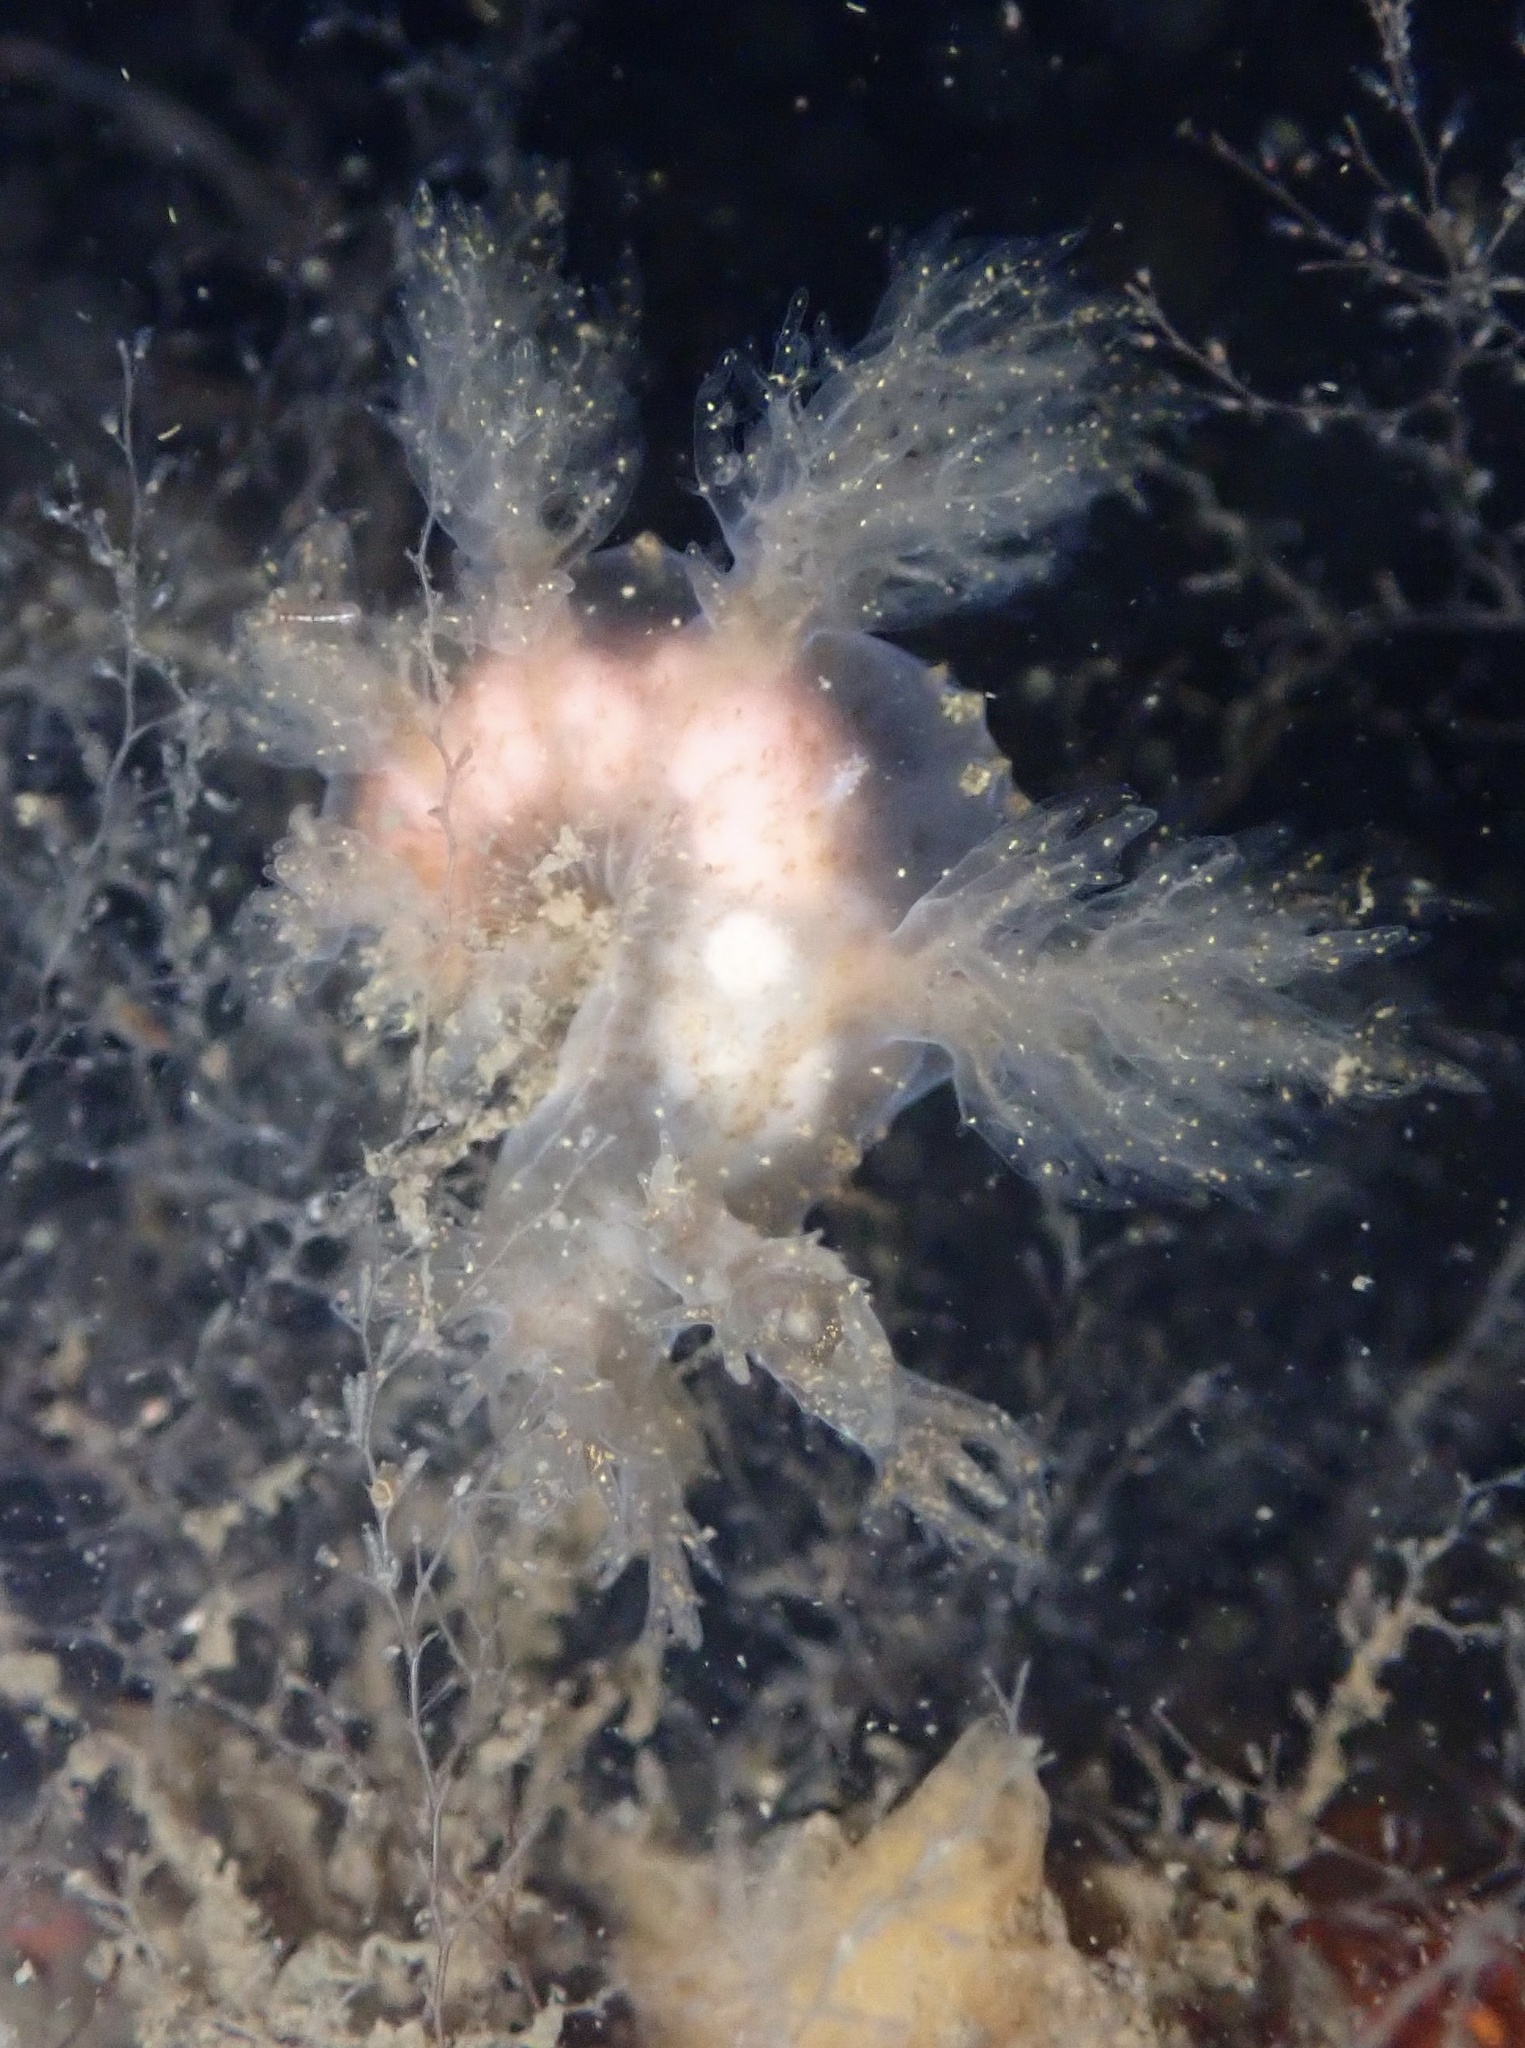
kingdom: Animalia
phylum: Mollusca
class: Gastropoda
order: Nudibranchia
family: Dendronotidae
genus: Dendronotus
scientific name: Dendronotus venustus
